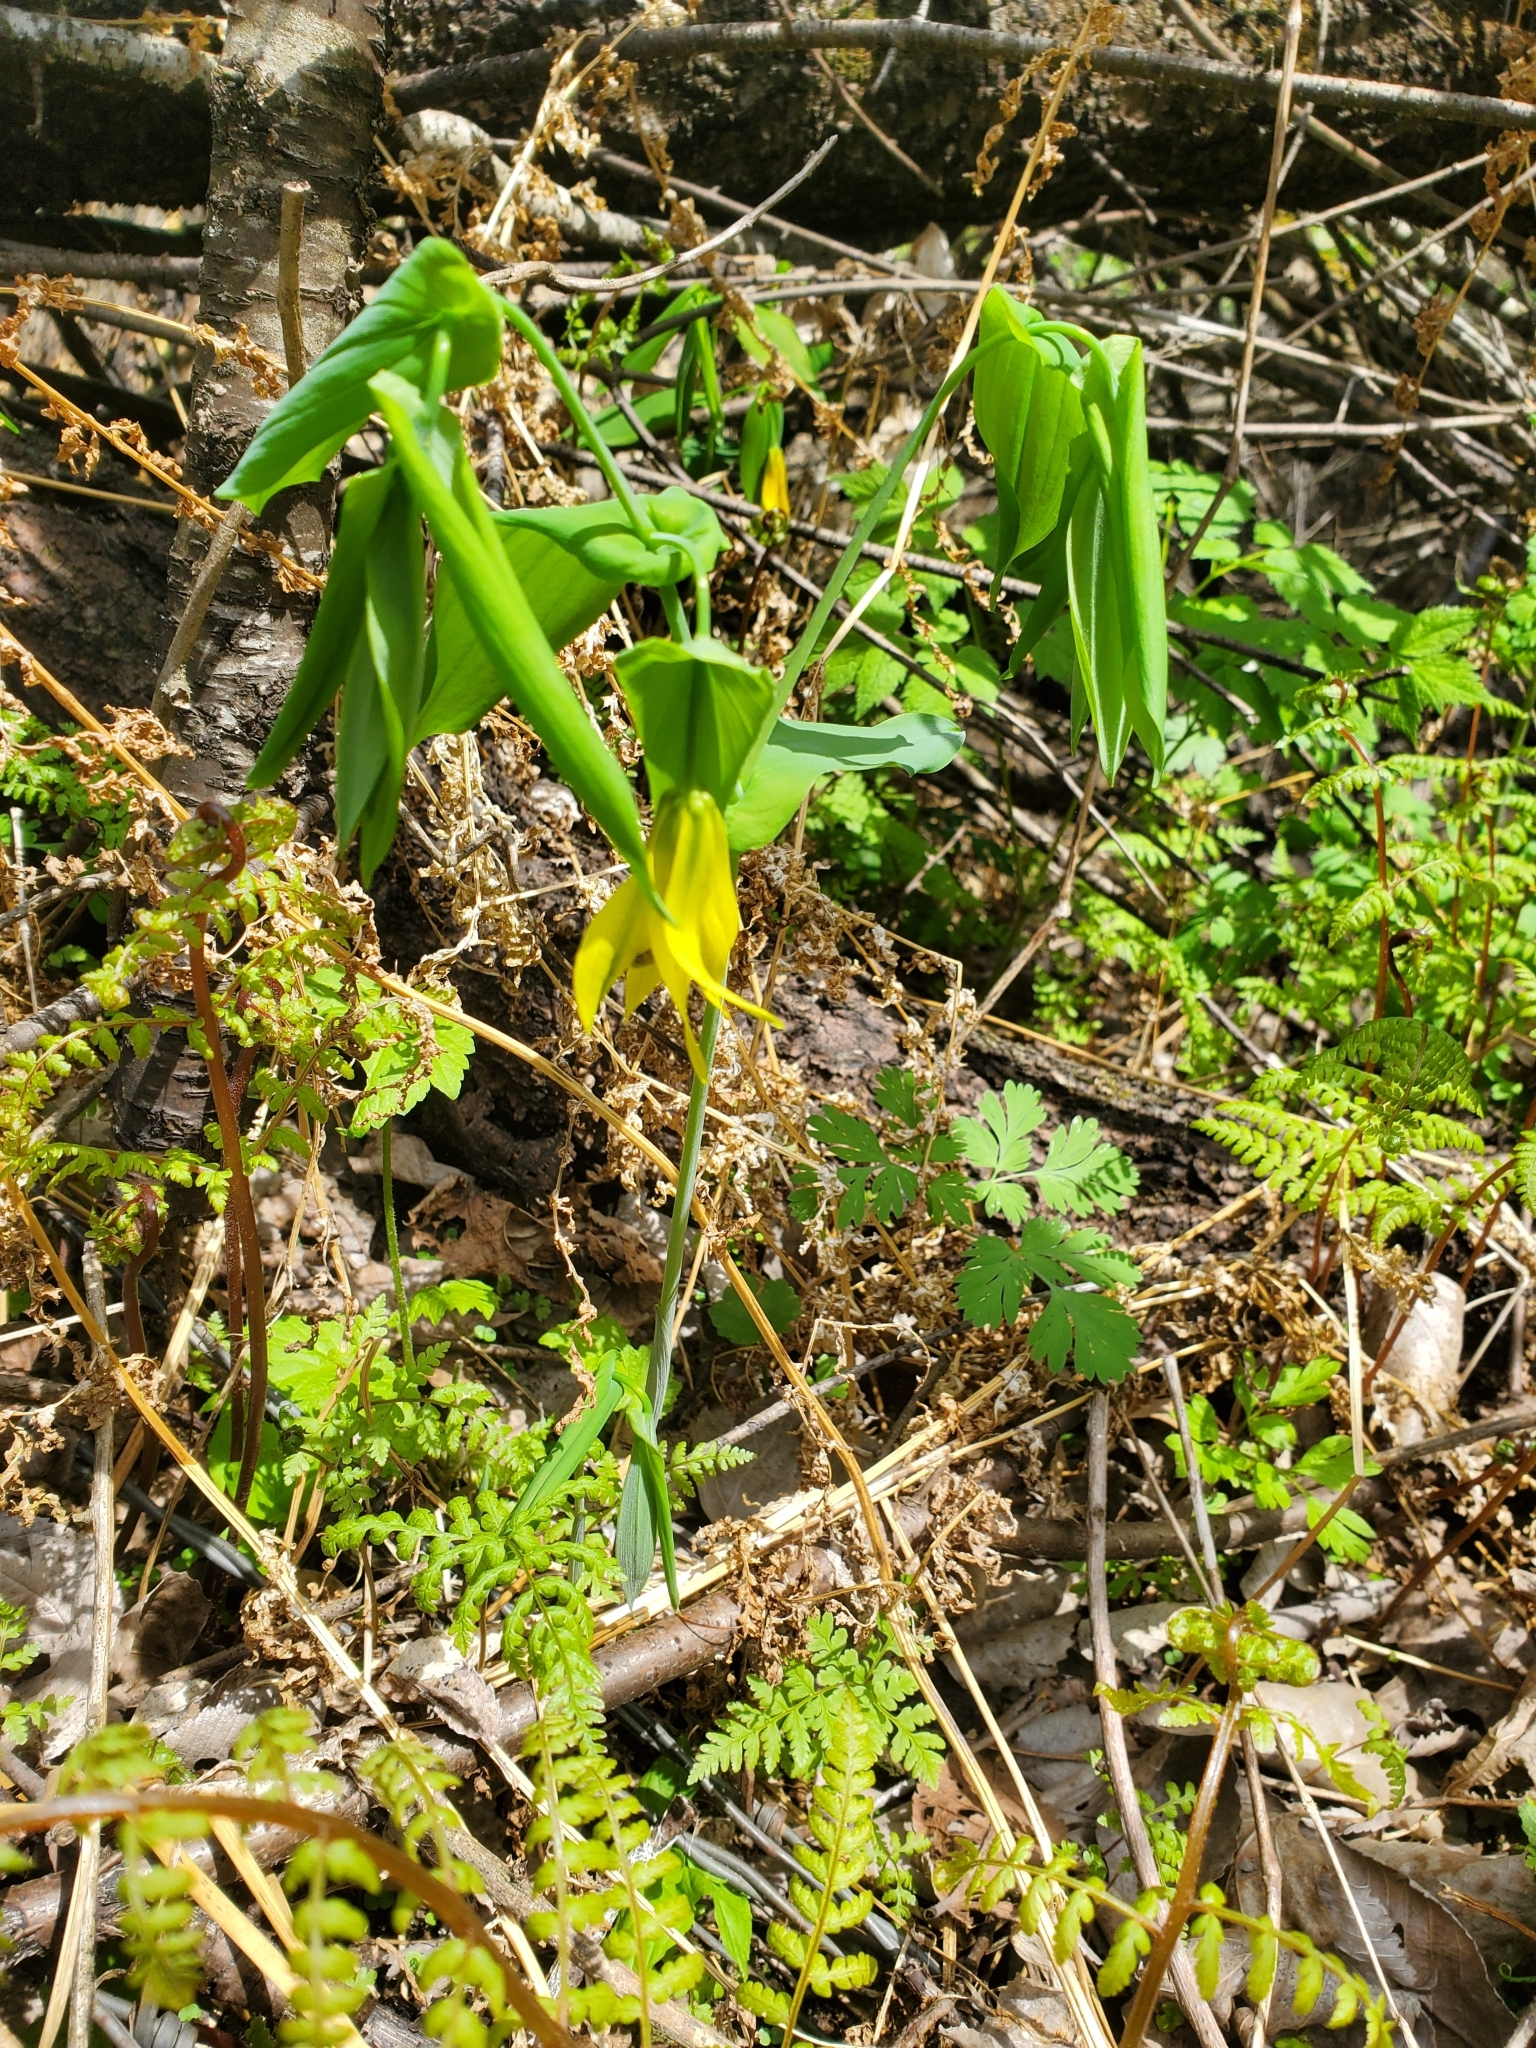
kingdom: Plantae
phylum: Tracheophyta
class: Liliopsida
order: Liliales
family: Colchicaceae
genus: Uvularia
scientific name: Uvularia grandiflora
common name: Bellwort
